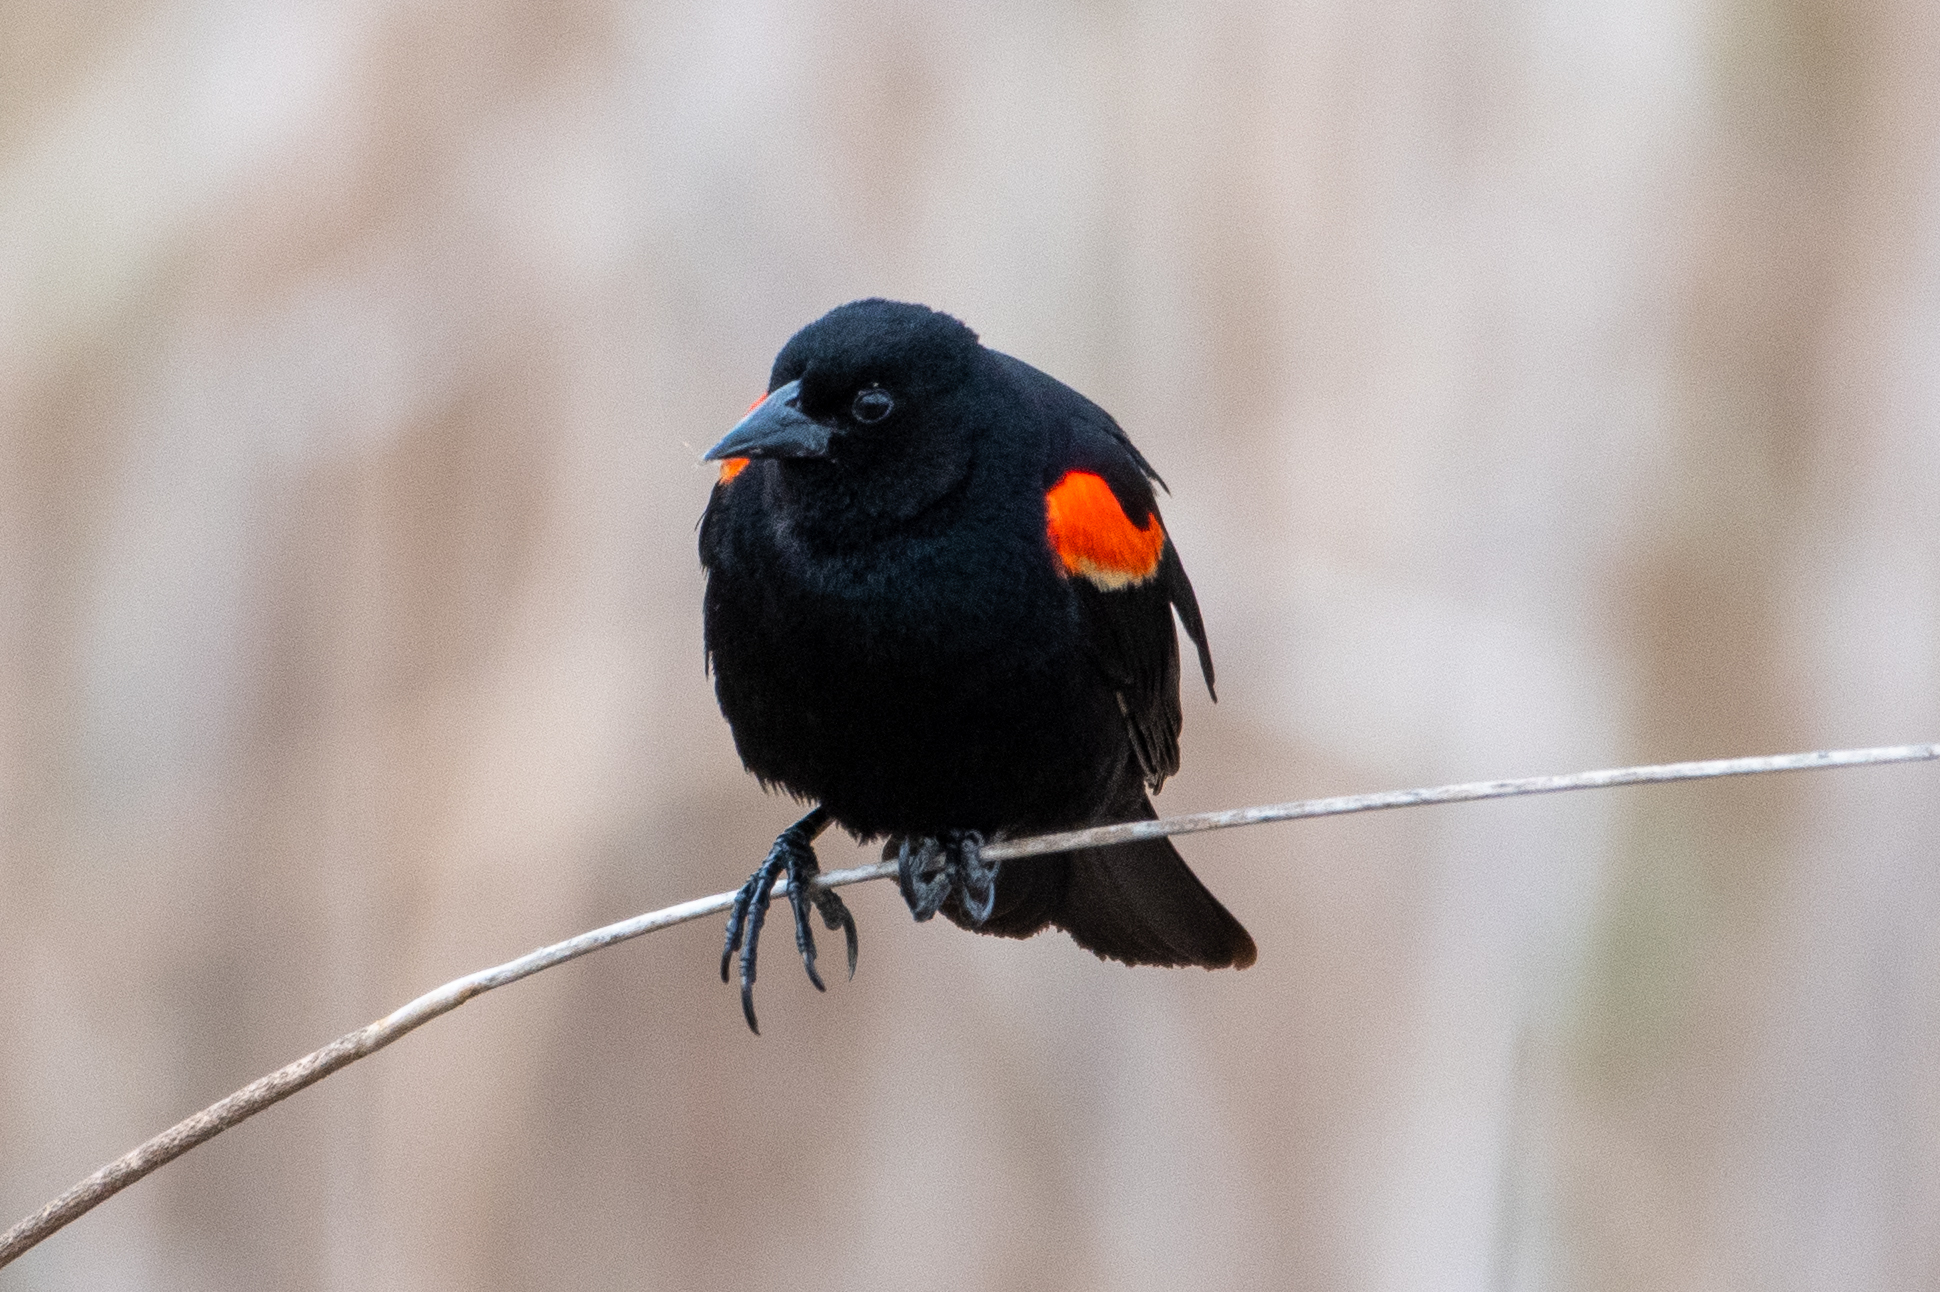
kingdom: Animalia
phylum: Chordata
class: Aves
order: Passeriformes
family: Icteridae
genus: Agelaius
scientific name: Agelaius phoeniceus
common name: Red-winged blackbird
